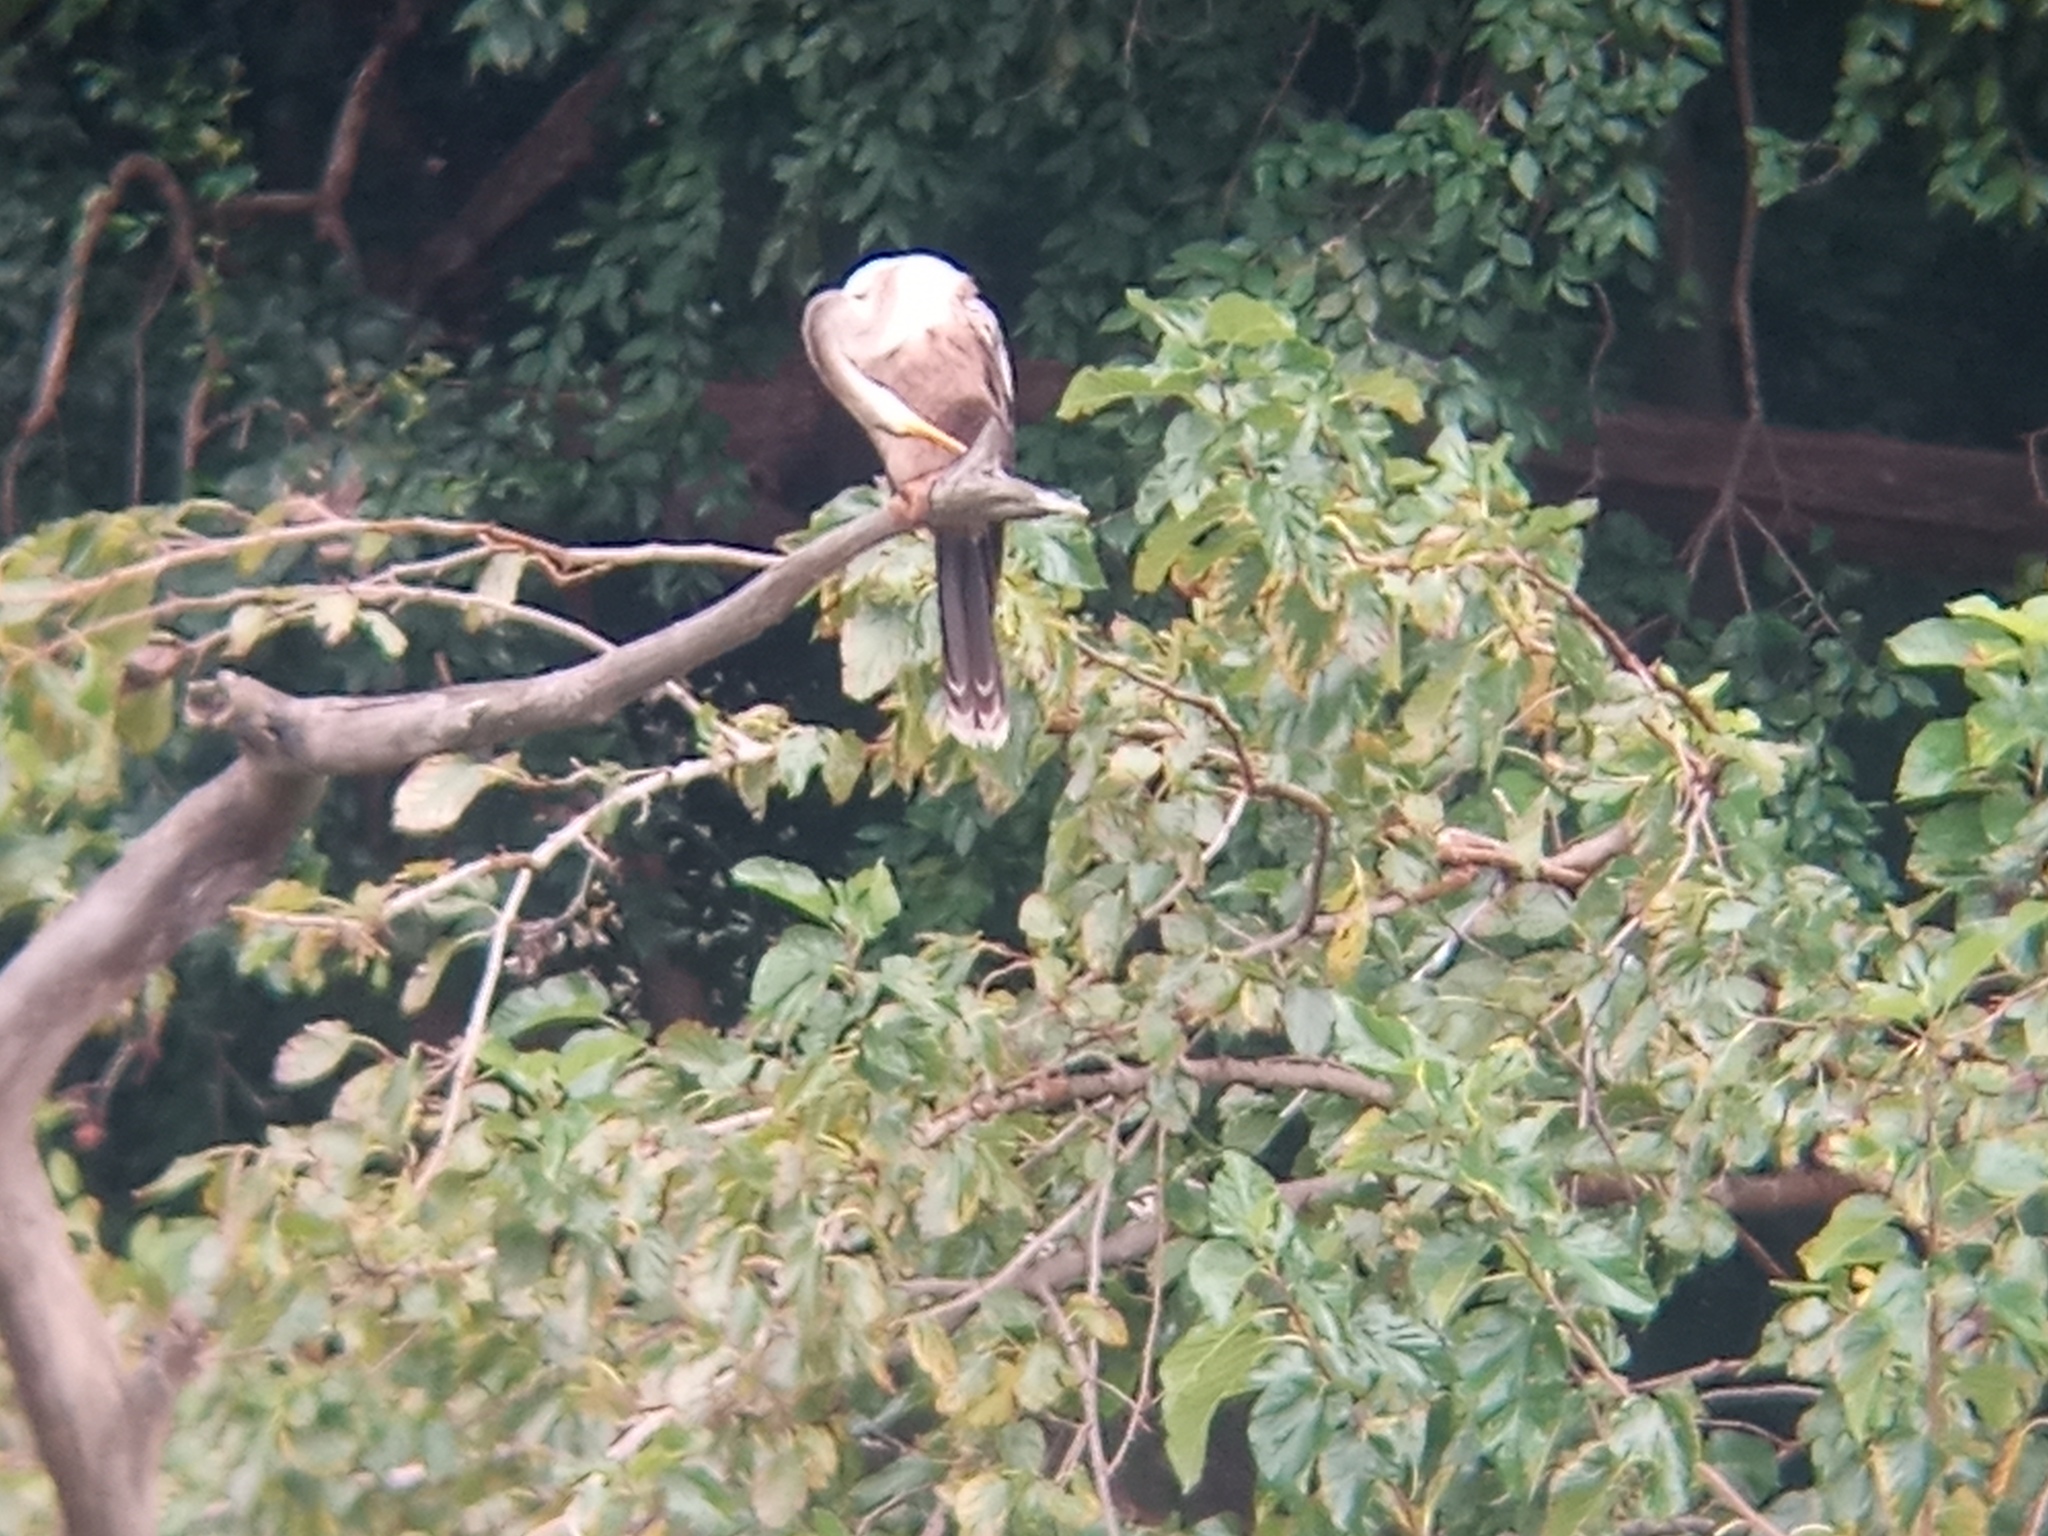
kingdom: Animalia
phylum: Chordata
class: Aves
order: Suliformes
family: Anhingidae
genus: Anhinga
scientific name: Anhinga anhinga
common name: Anhinga
